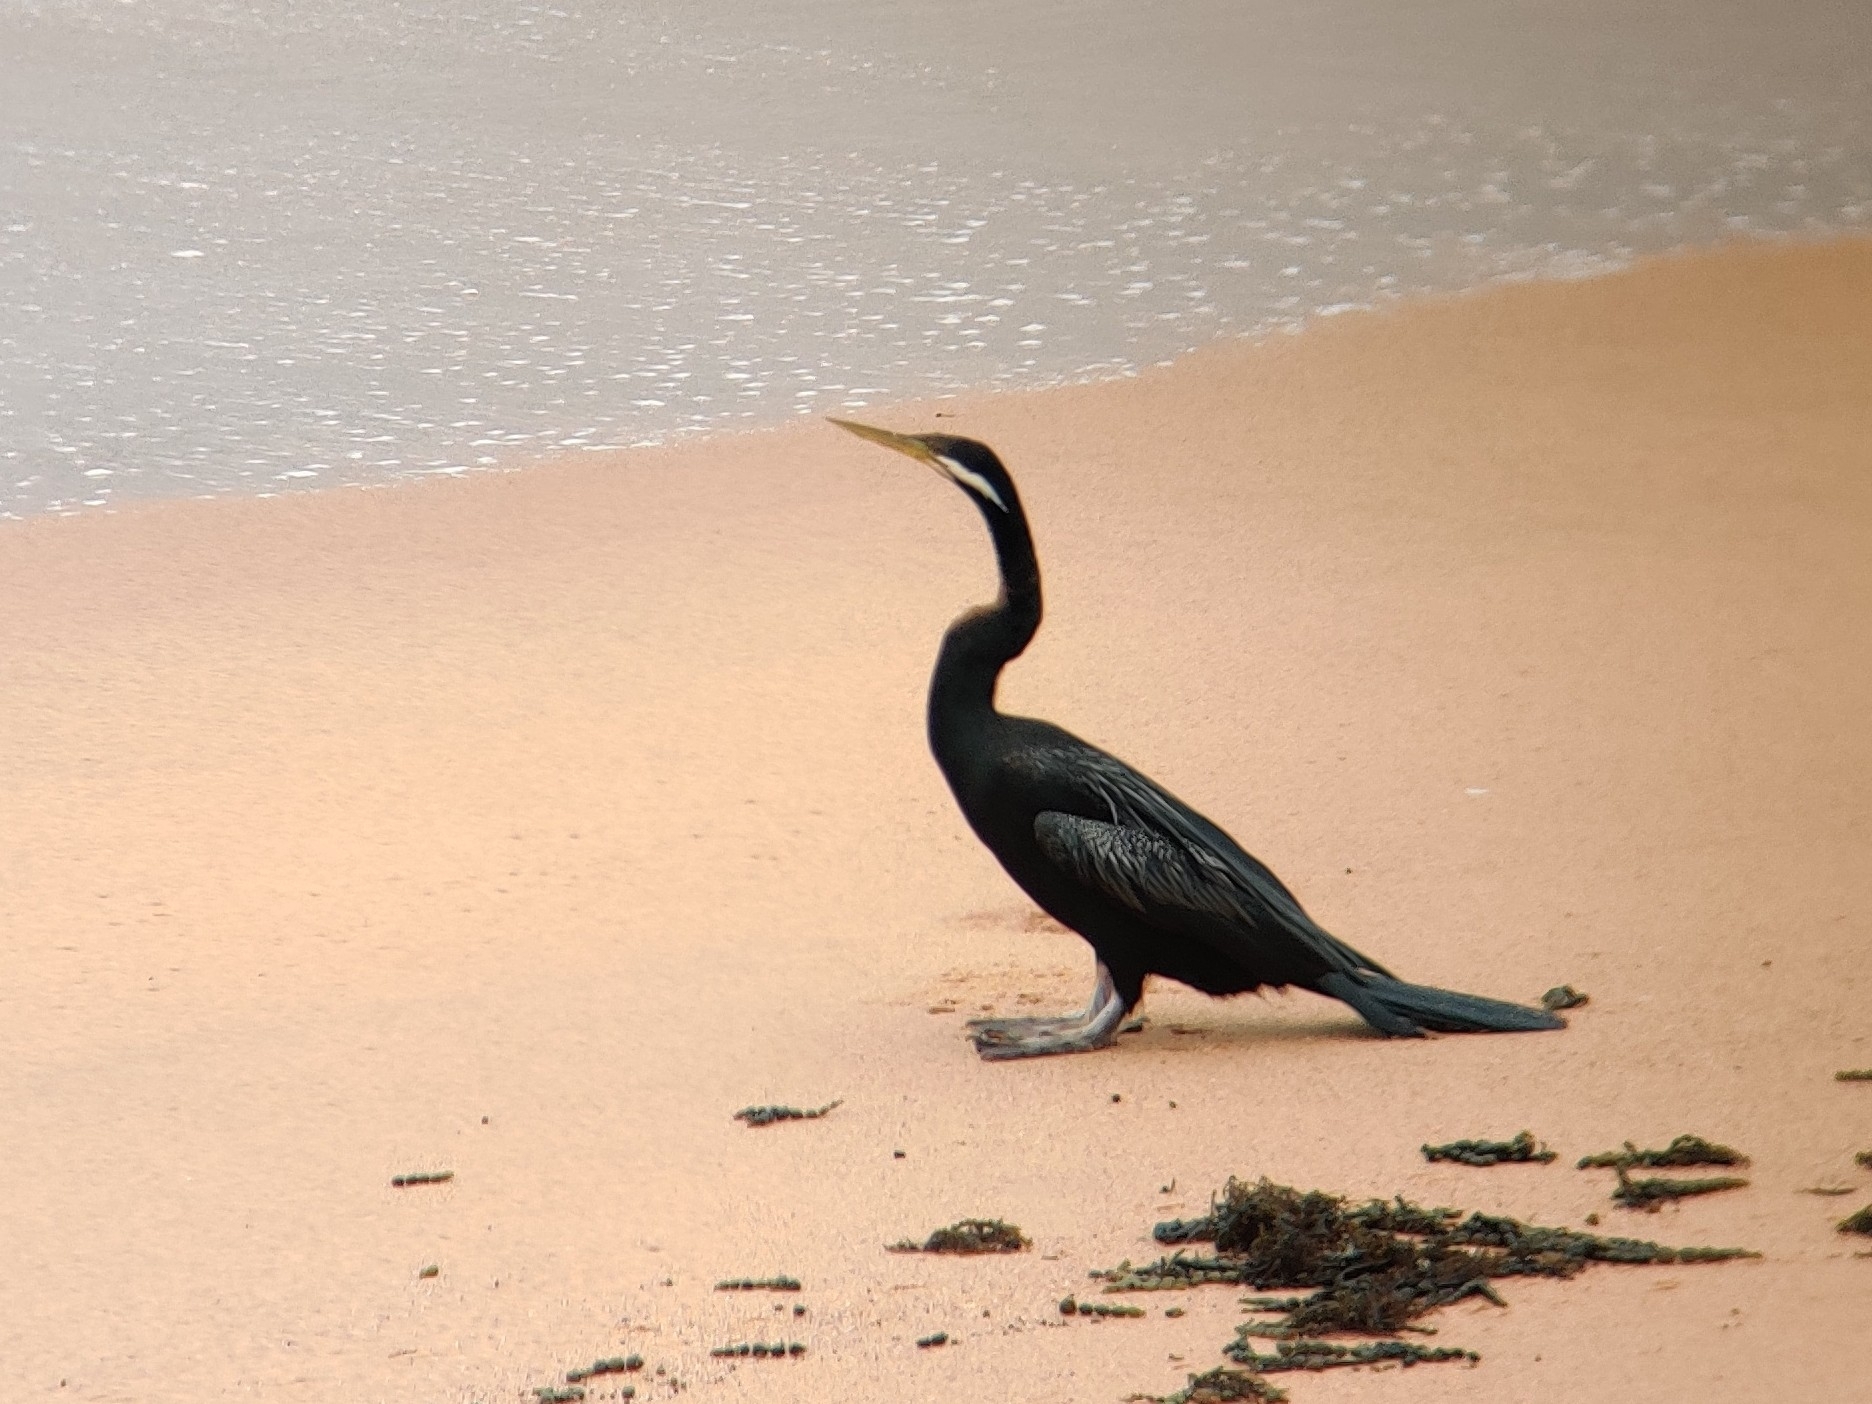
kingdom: Animalia
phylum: Chordata
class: Aves
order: Suliformes
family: Anhingidae
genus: Anhinga
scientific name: Anhinga novaehollandiae
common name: Australasian darter
